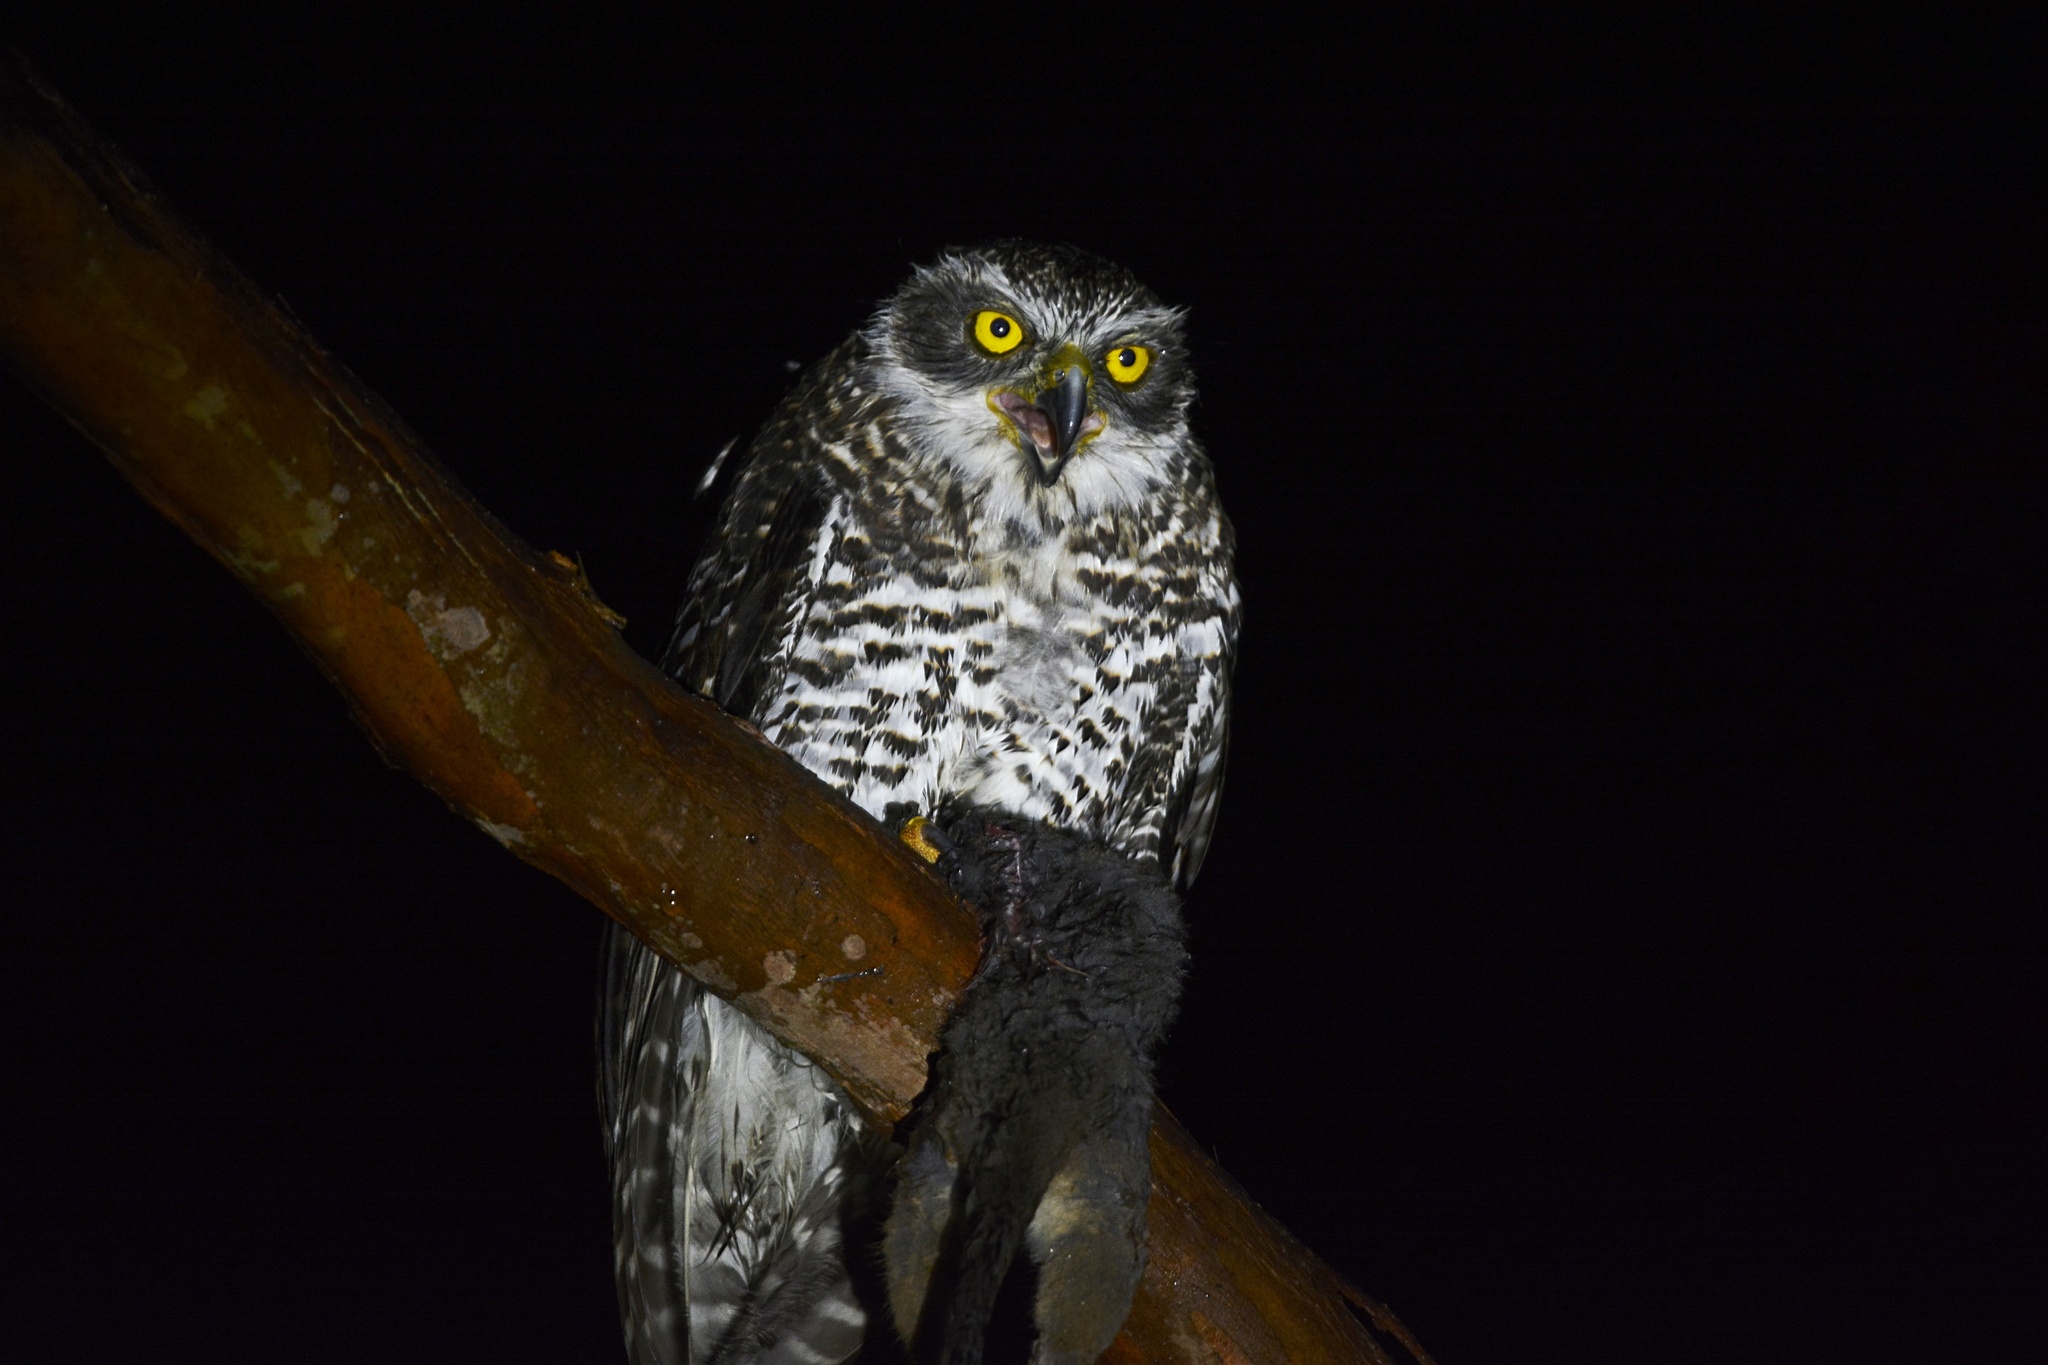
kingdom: Animalia
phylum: Chordata
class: Aves
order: Strigiformes
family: Strigidae
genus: Ninox
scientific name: Ninox strenua
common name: Powerful owl
